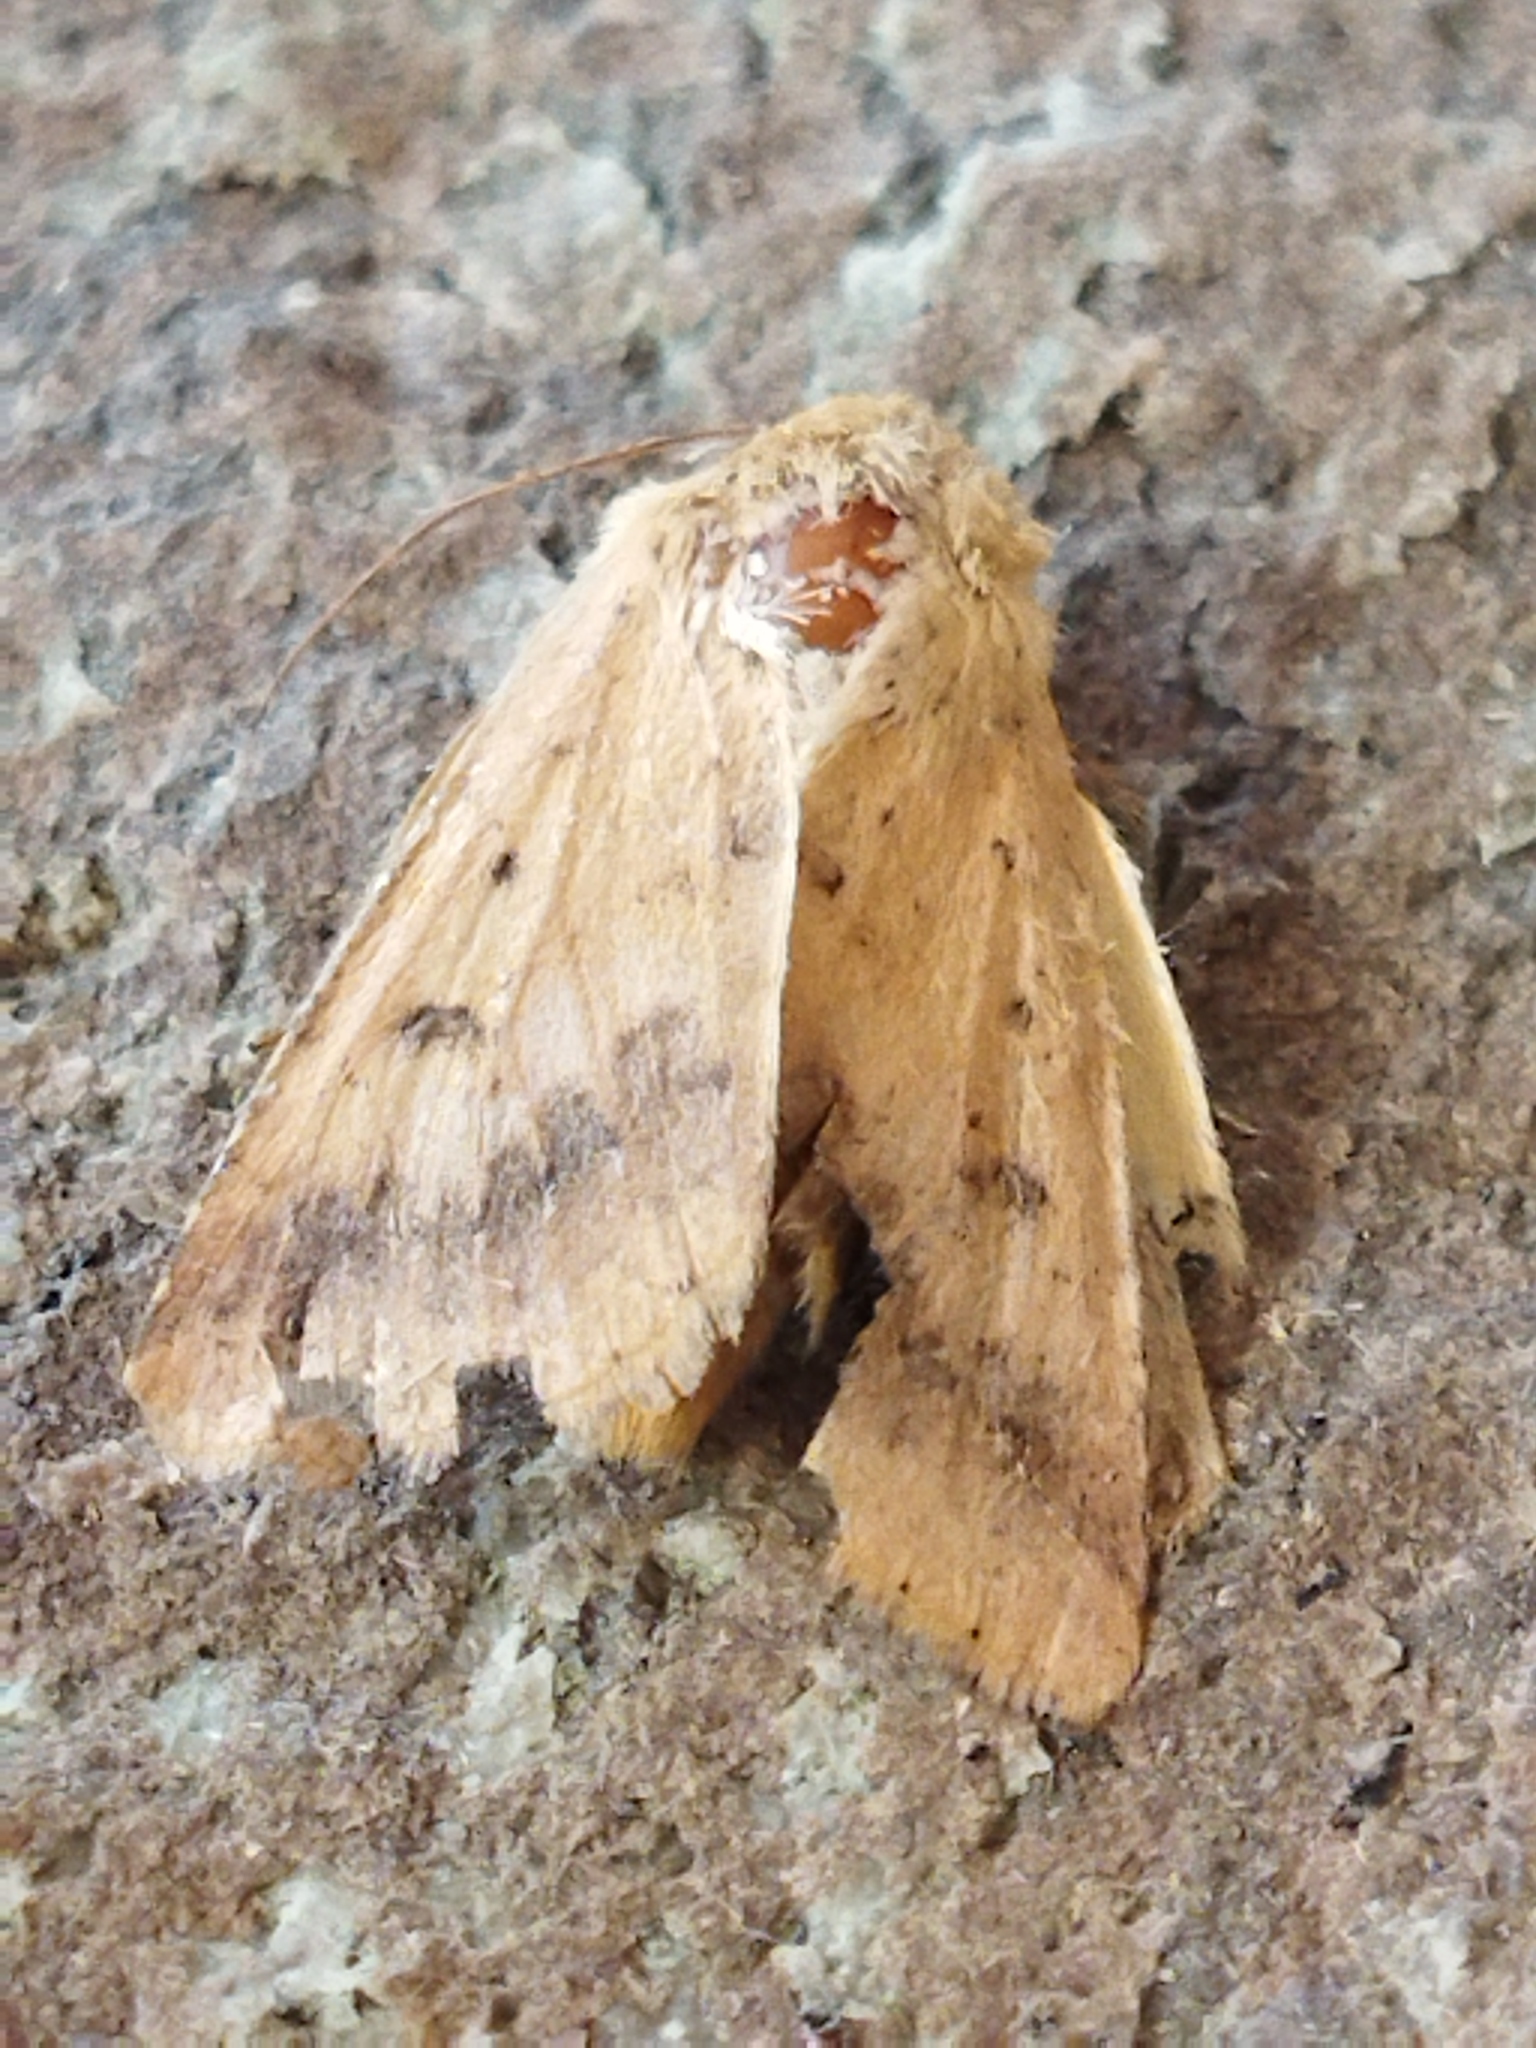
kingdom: Animalia
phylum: Arthropoda
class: Insecta
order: Lepidoptera
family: Noctuidae
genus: Helicoverpa
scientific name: Helicoverpa armigera
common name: Cotton bollworm
